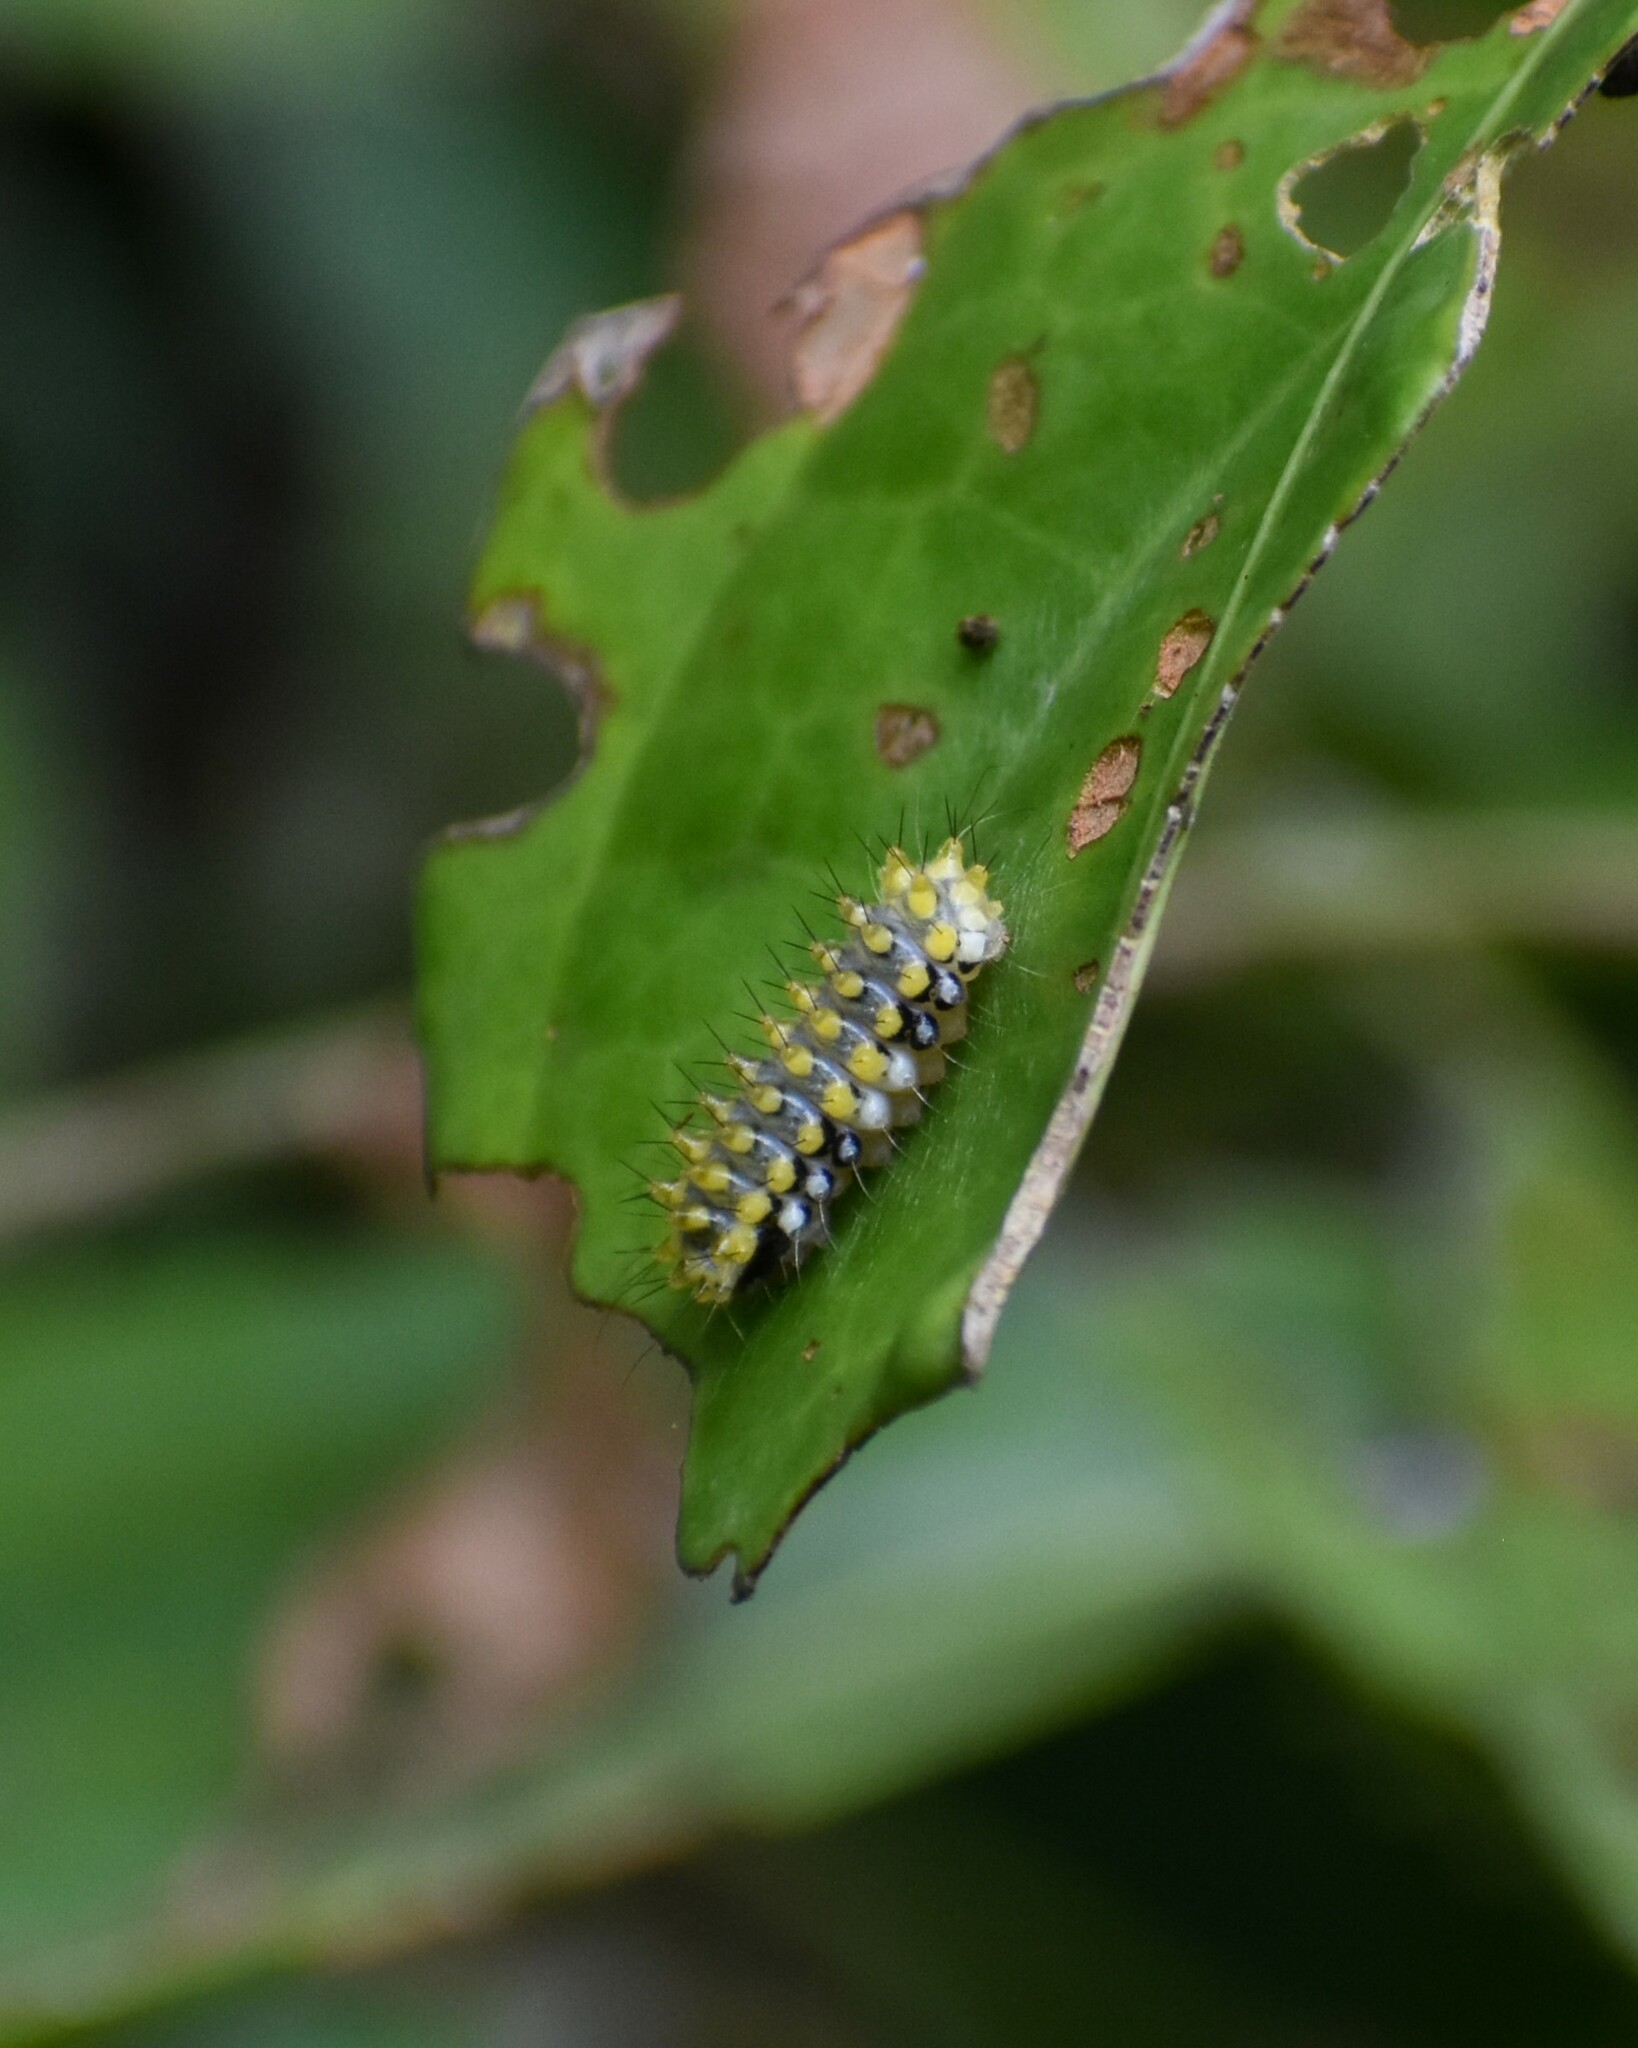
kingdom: Animalia
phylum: Arthropoda
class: Insecta
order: Lepidoptera
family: Zygaenidae
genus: Cyclosia
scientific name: Cyclosia
